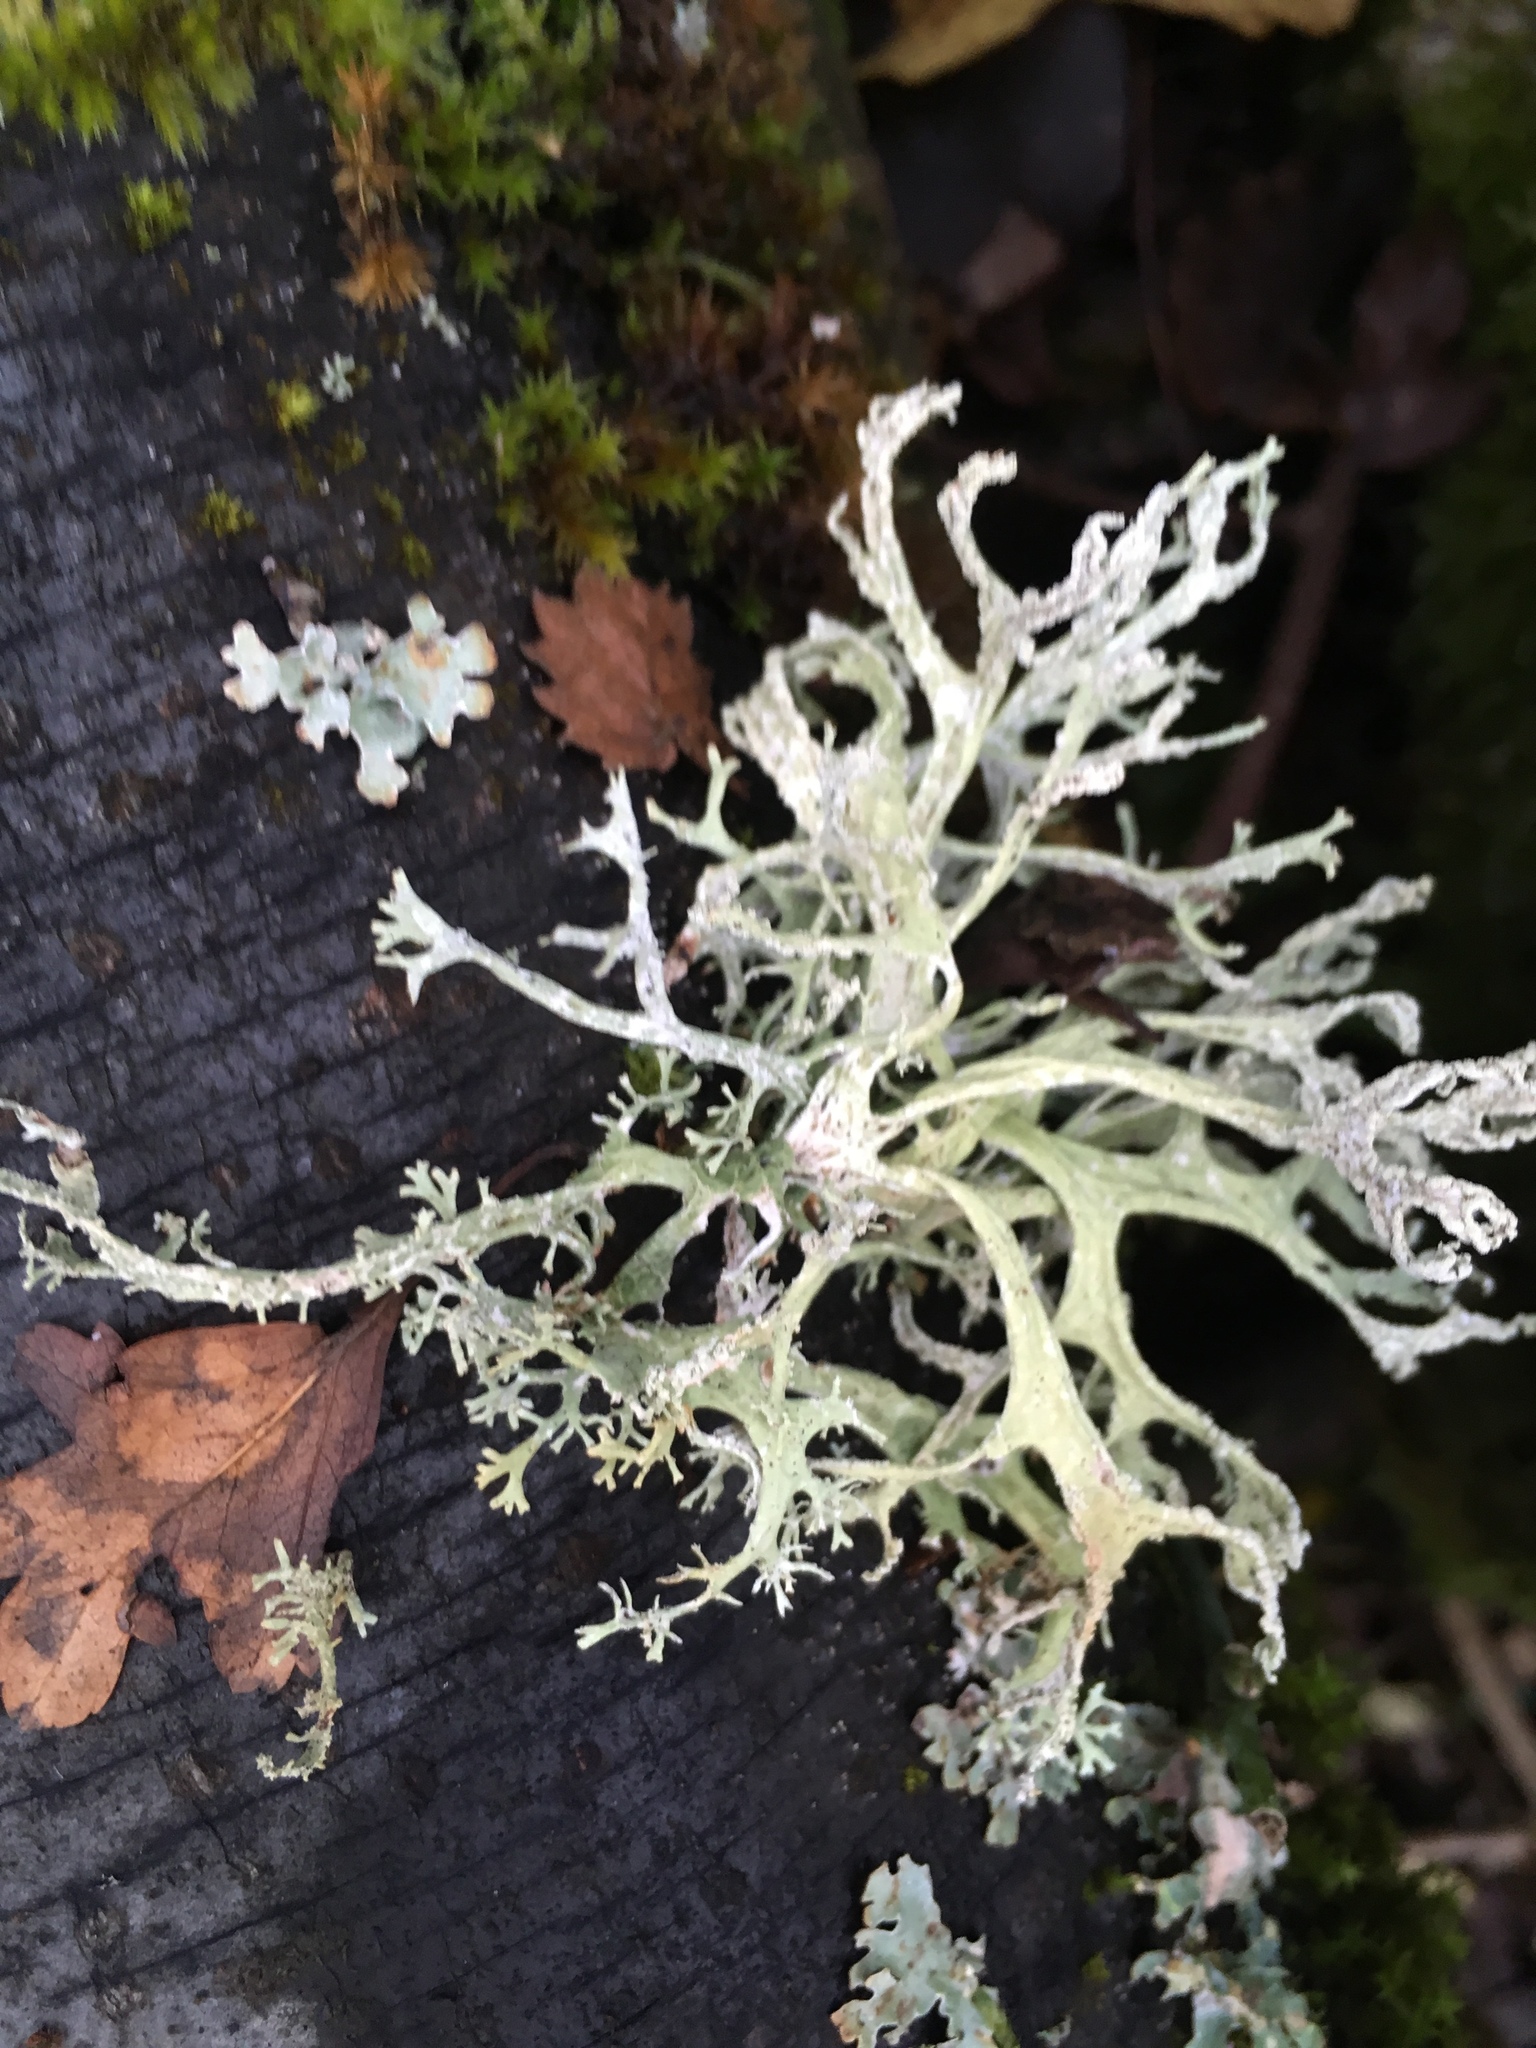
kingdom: Fungi
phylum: Ascomycota
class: Lecanoromycetes
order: Lecanorales
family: Parmeliaceae
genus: Evernia
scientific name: Evernia prunastri
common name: Oak moss
